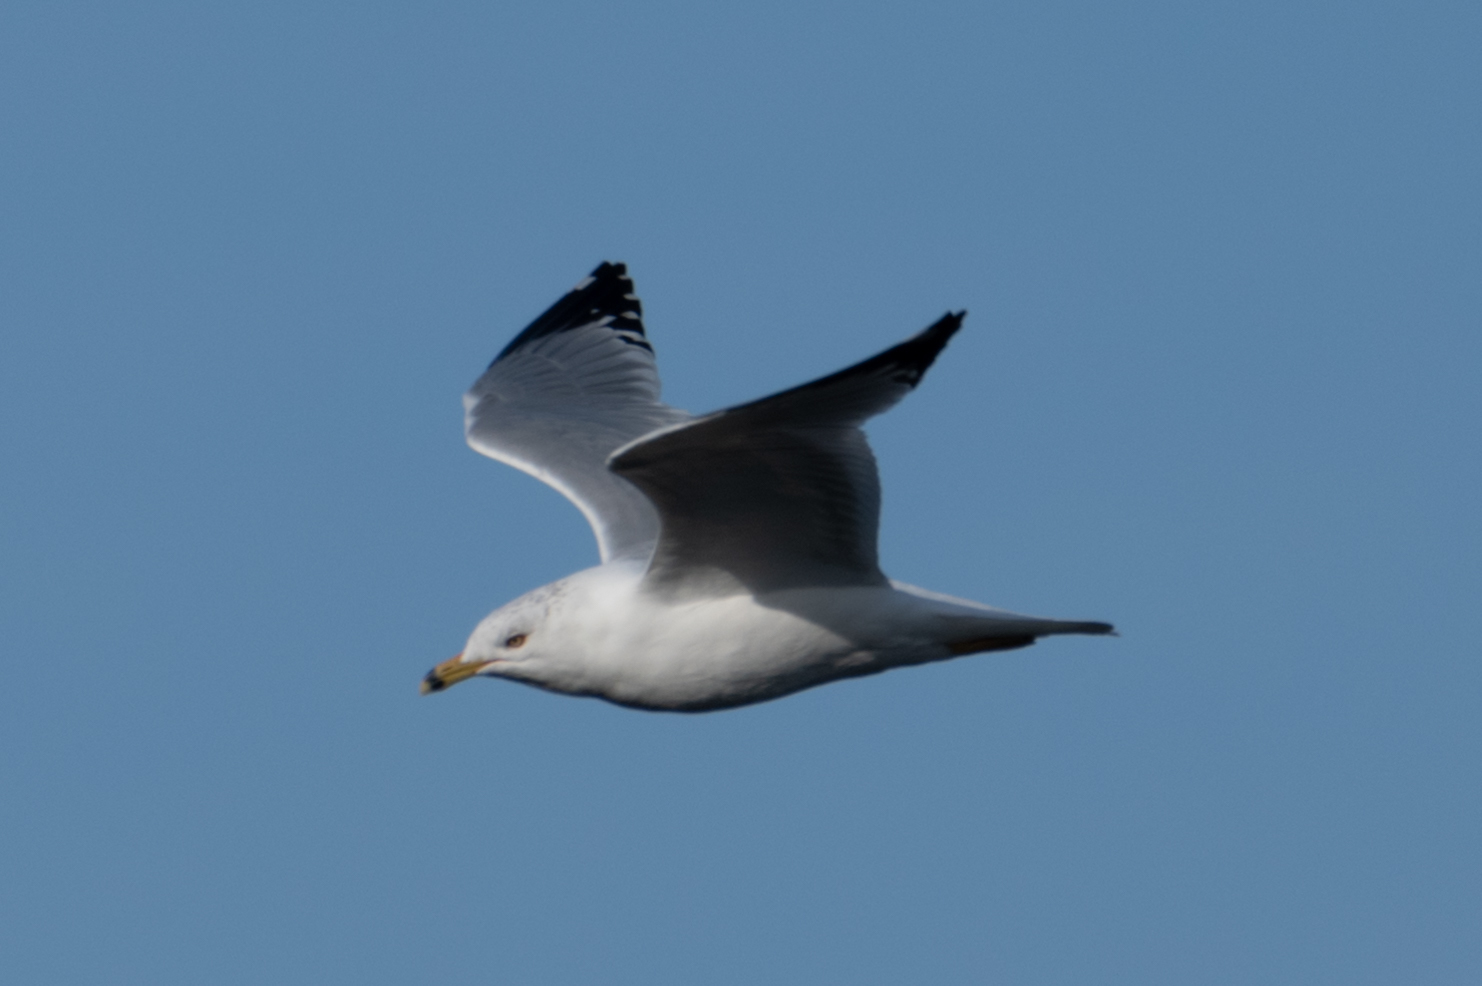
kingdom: Animalia
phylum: Chordata
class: Aves
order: Charadriiformes
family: Laridae
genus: Larus
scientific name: Larus delawarensis
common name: Ring-billed gull
